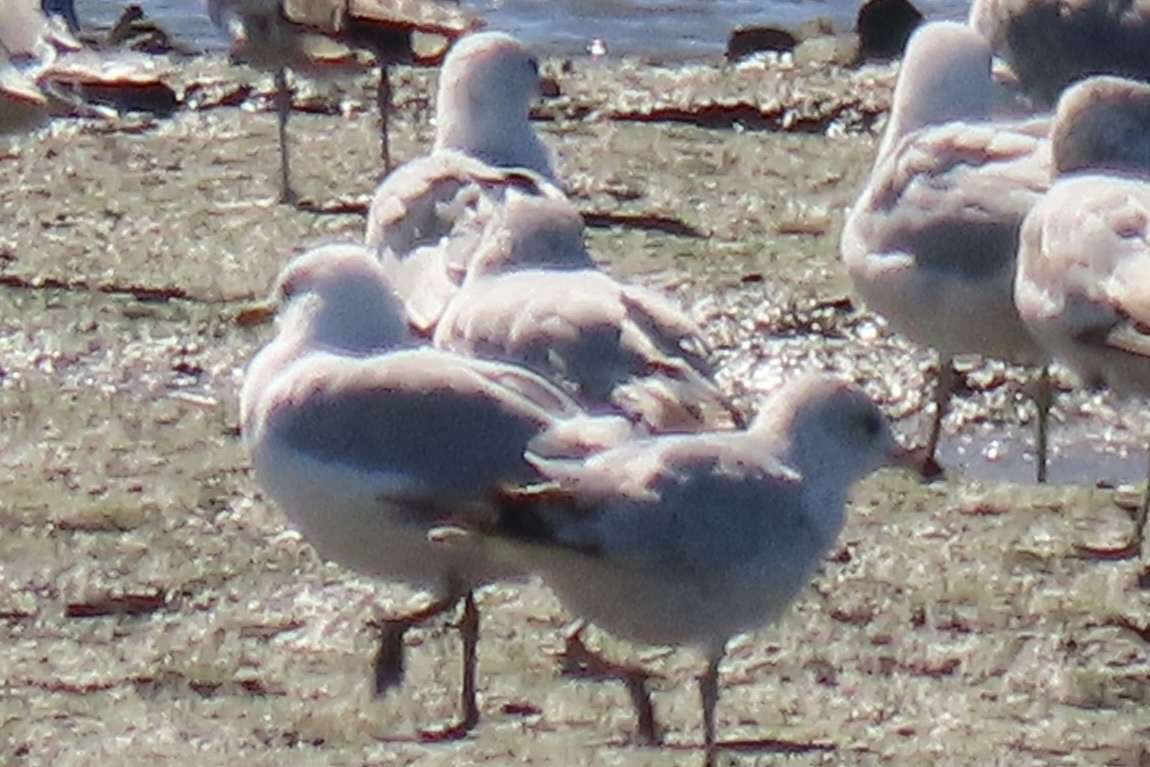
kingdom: Animalia
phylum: Chordata
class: Aves
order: Charadriiformes
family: Laridae
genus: Larus
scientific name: Larus delawarensis
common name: Ring-billed gull
